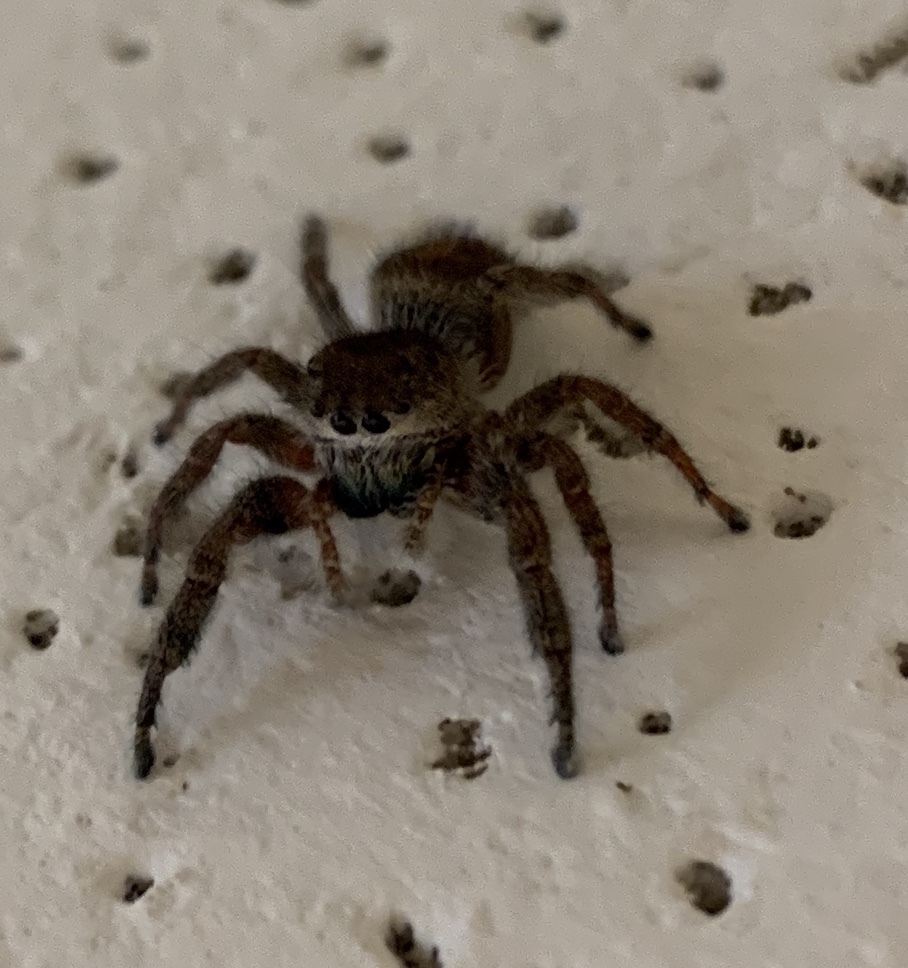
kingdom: Animalia
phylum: Arthropoda
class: Arachnida
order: Araneae
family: Salticidae
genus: Phidippus
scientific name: Phidippus princeps
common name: Grayish jumping spider
